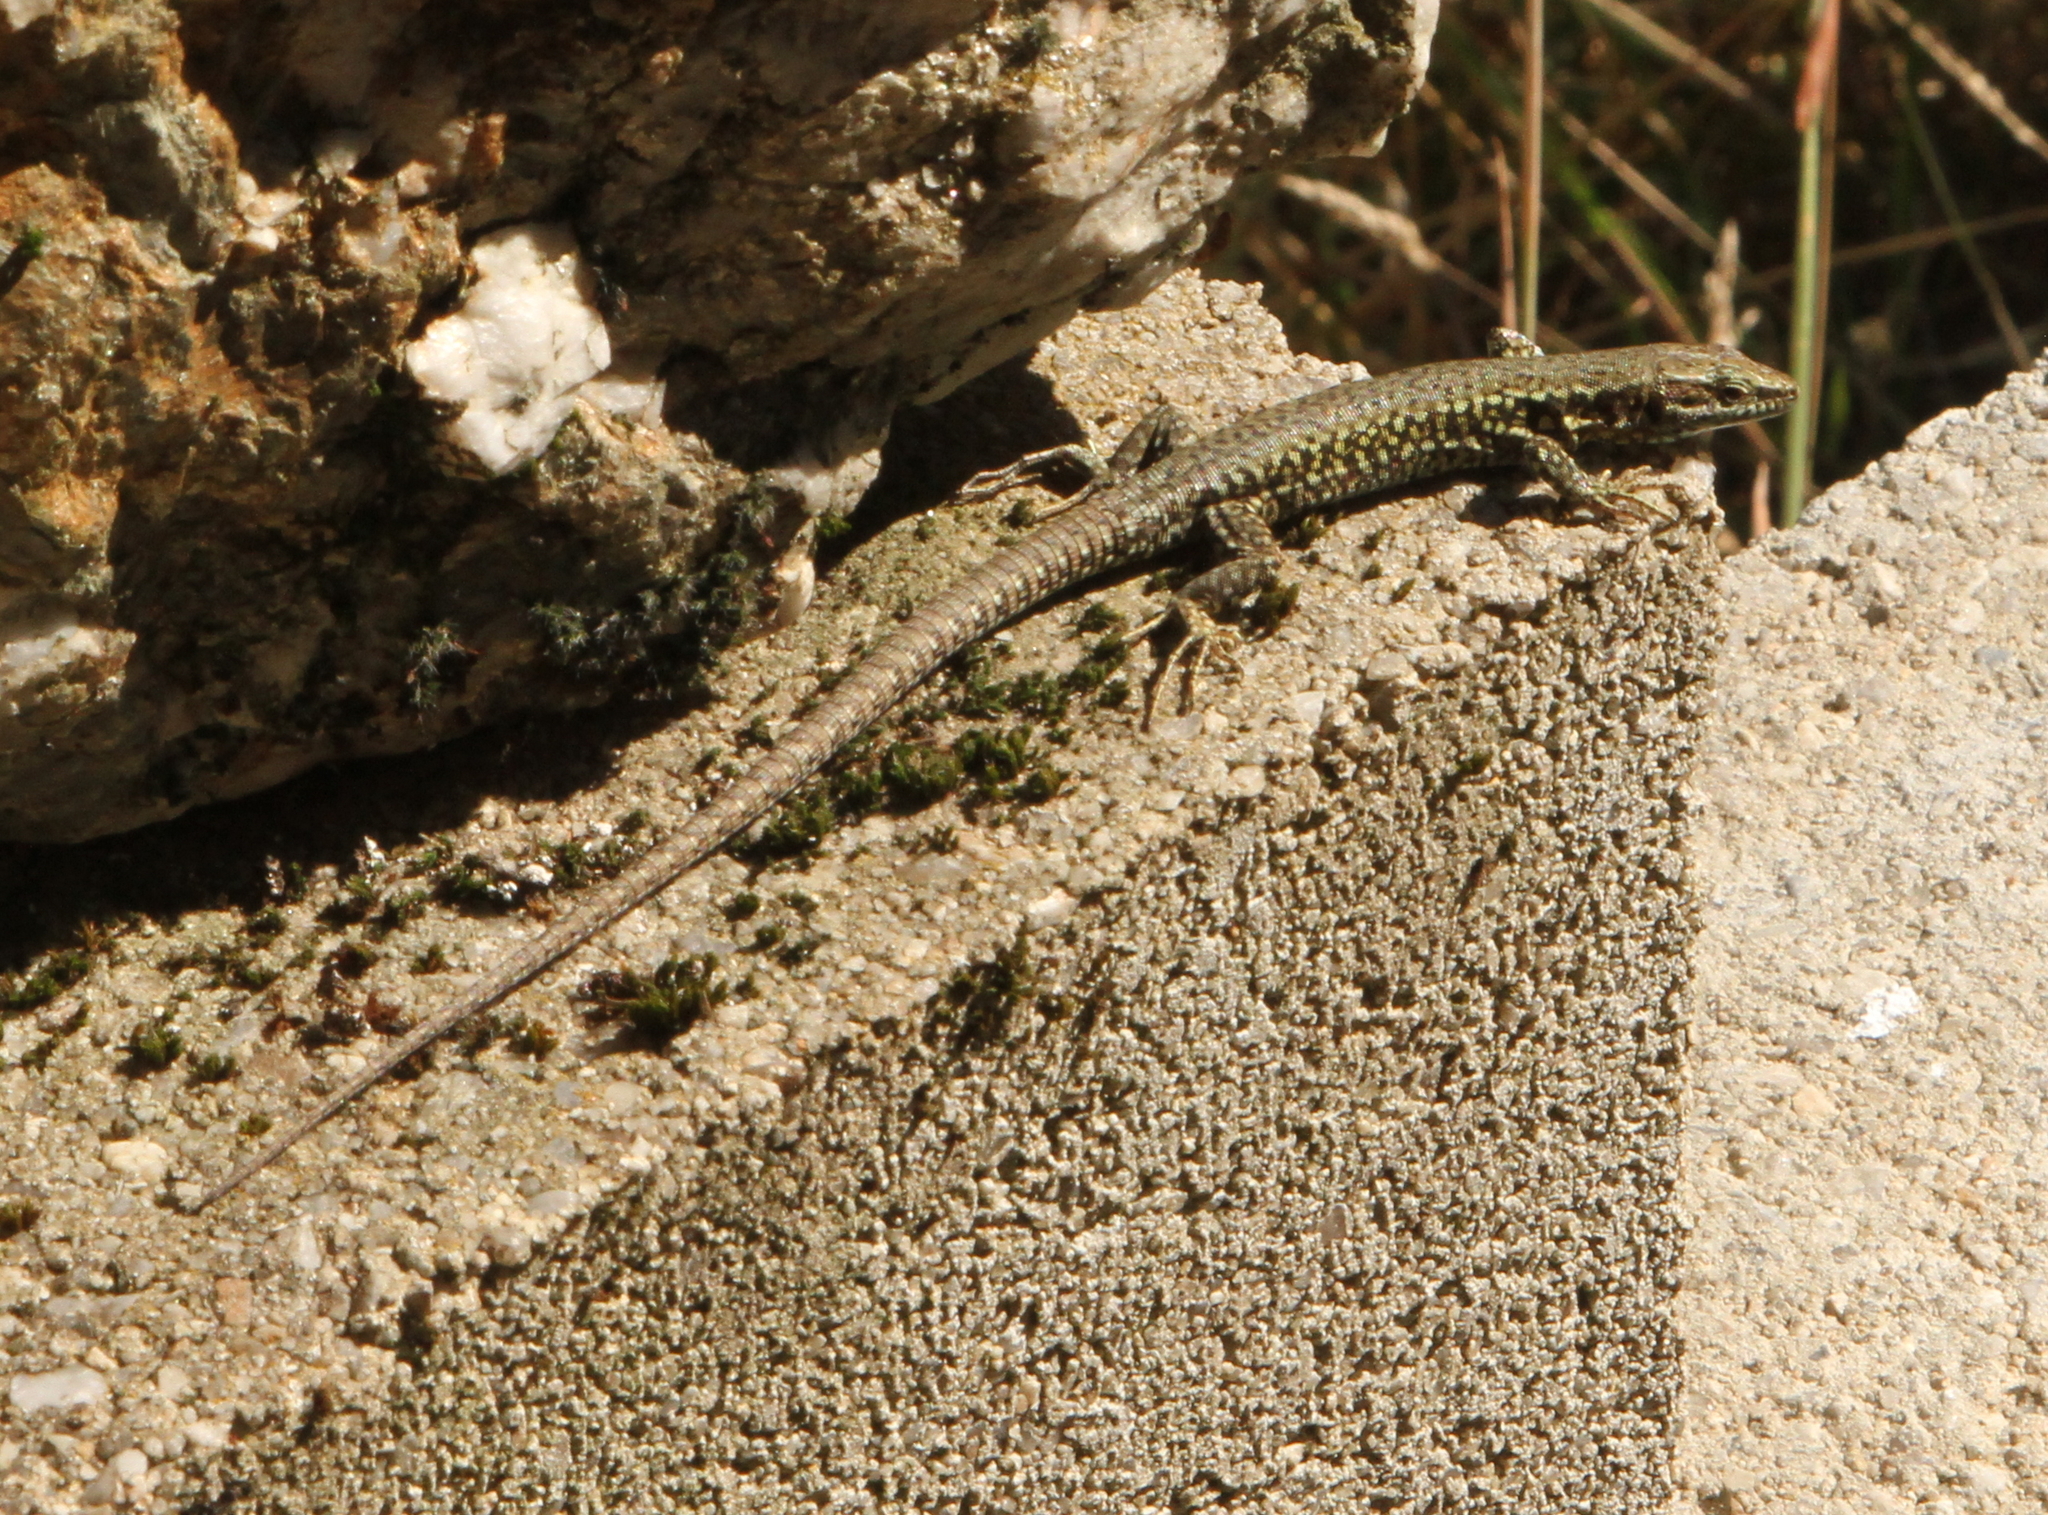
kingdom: Animalia
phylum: Chordata
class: Squamata
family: Lacertidae
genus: Podarcis
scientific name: Podarcis muralis
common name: Common wall lizard
